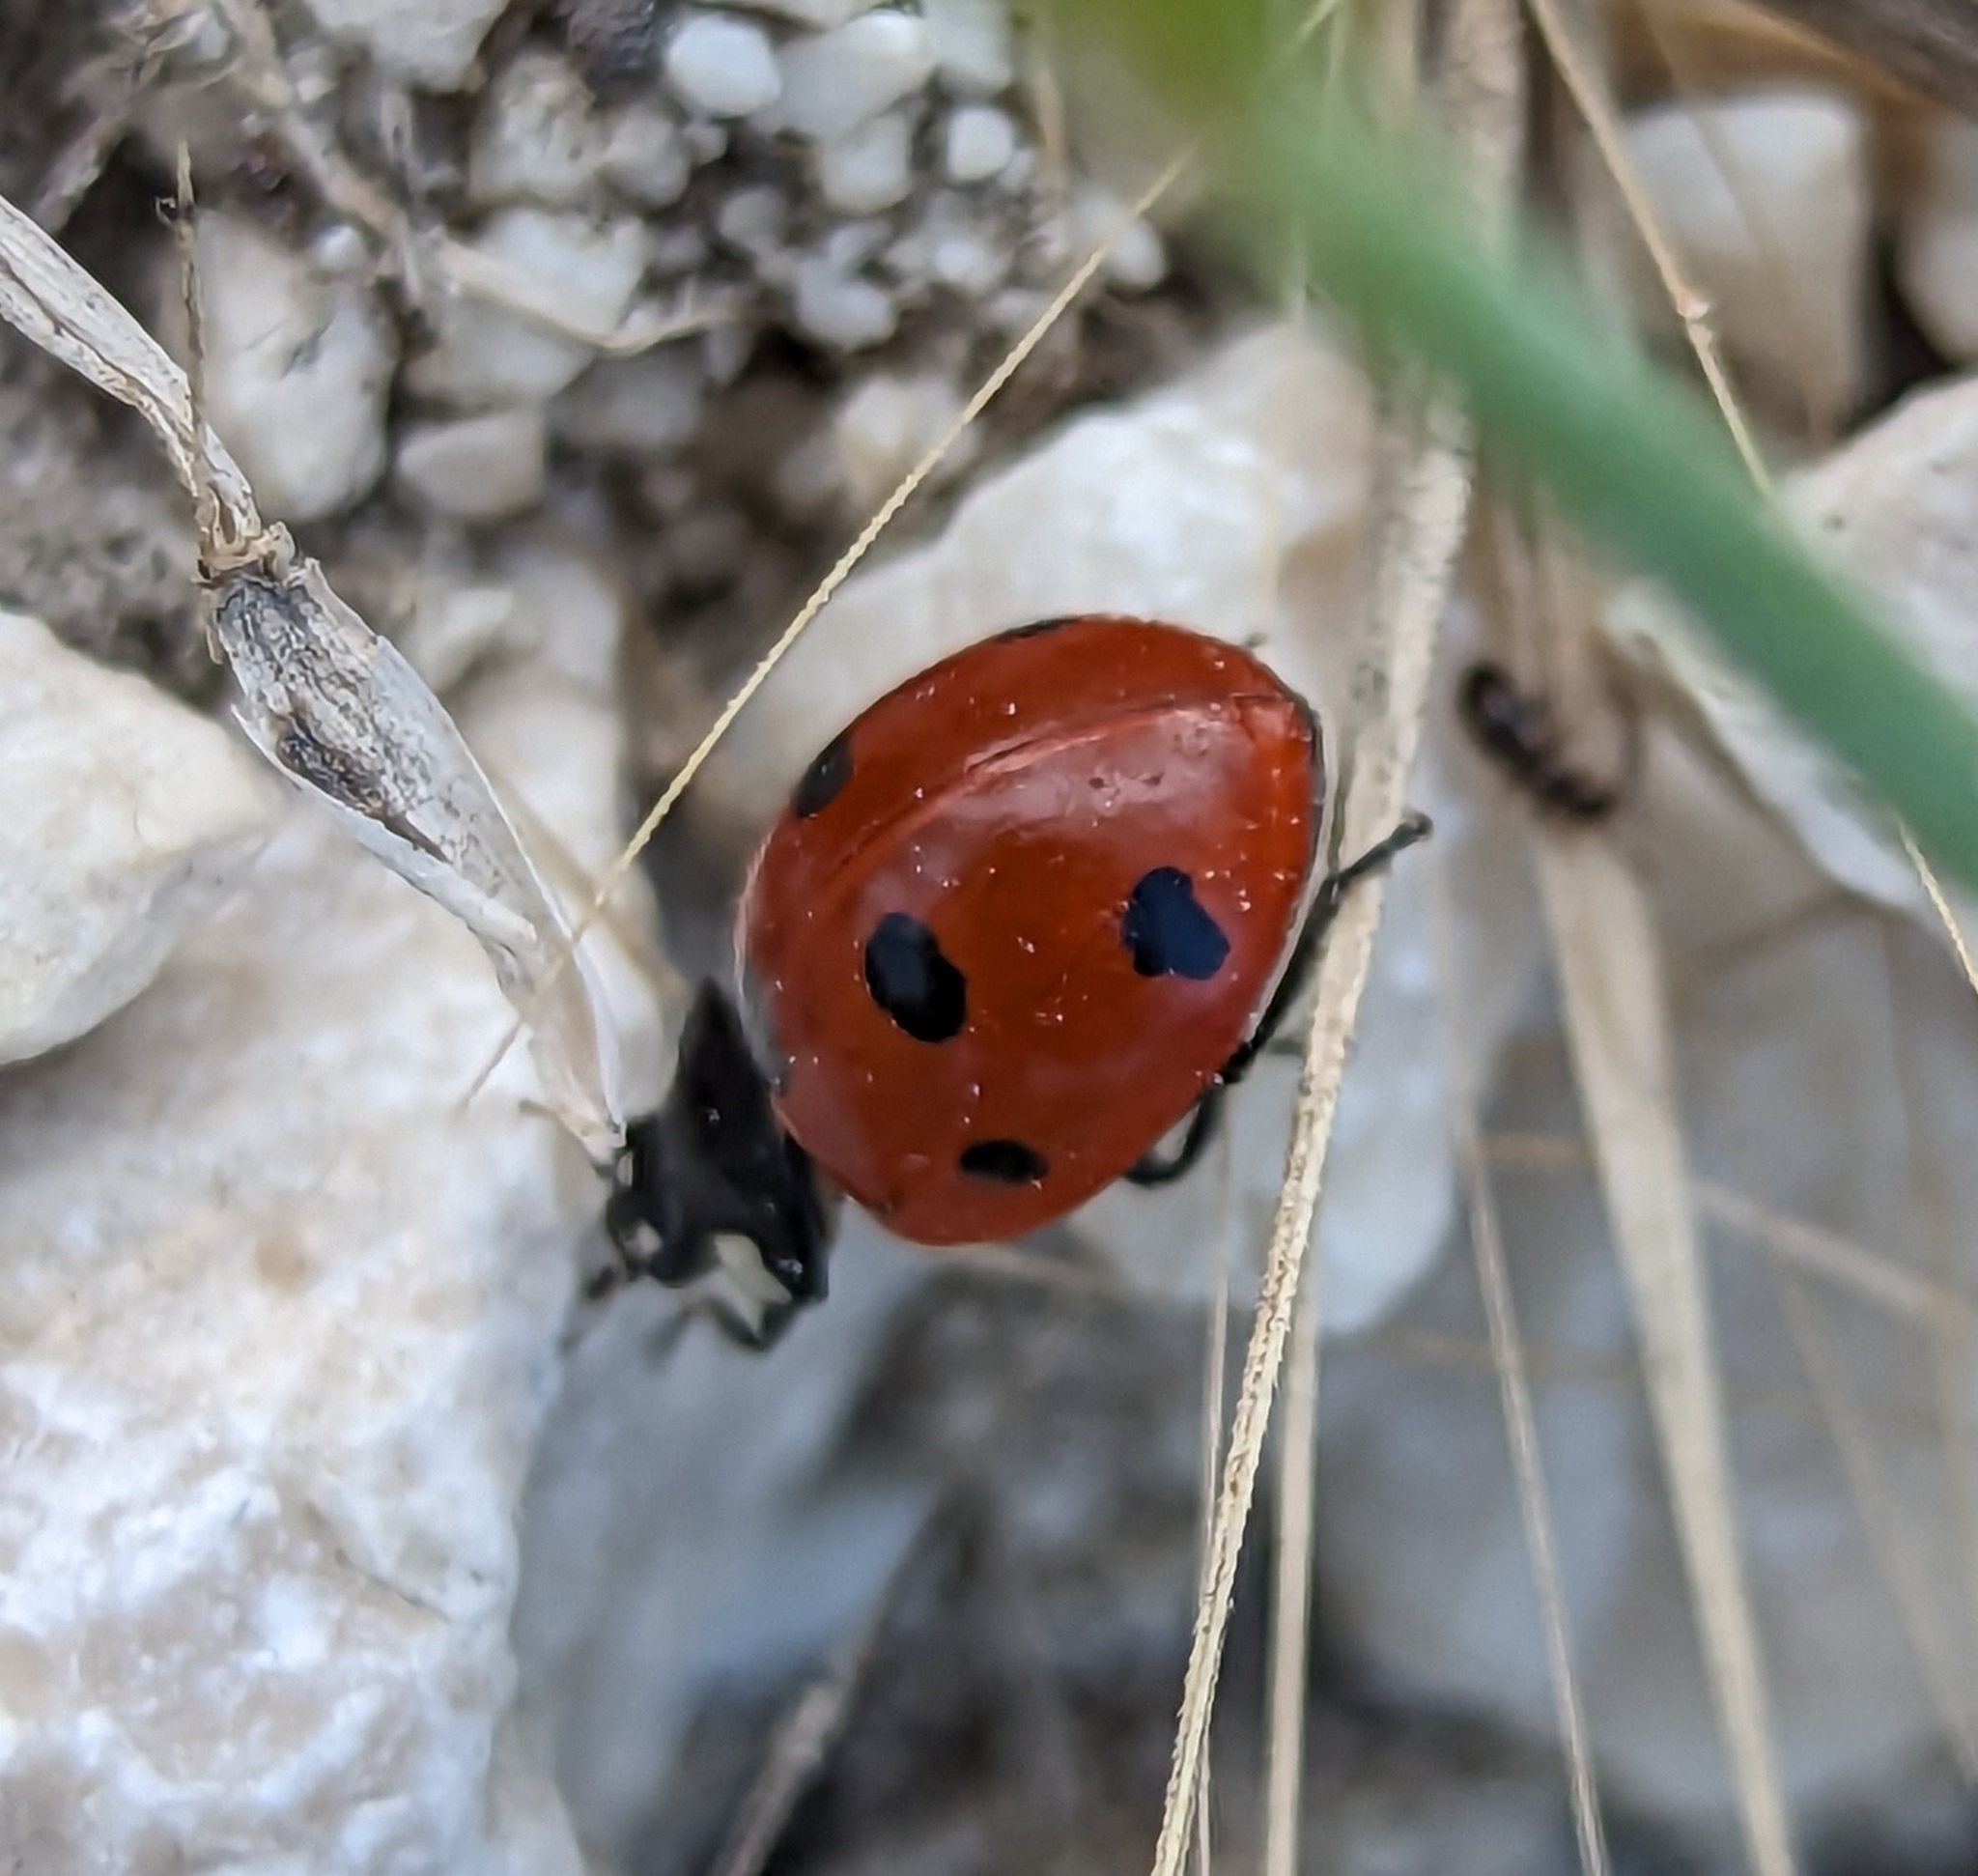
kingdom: Animalia
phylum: Arthropoda
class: Insecta
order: Coleoptera
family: Coccinellidae
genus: Coccinella
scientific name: Coccinella septempunctata
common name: Sevenspotted lady beetle
